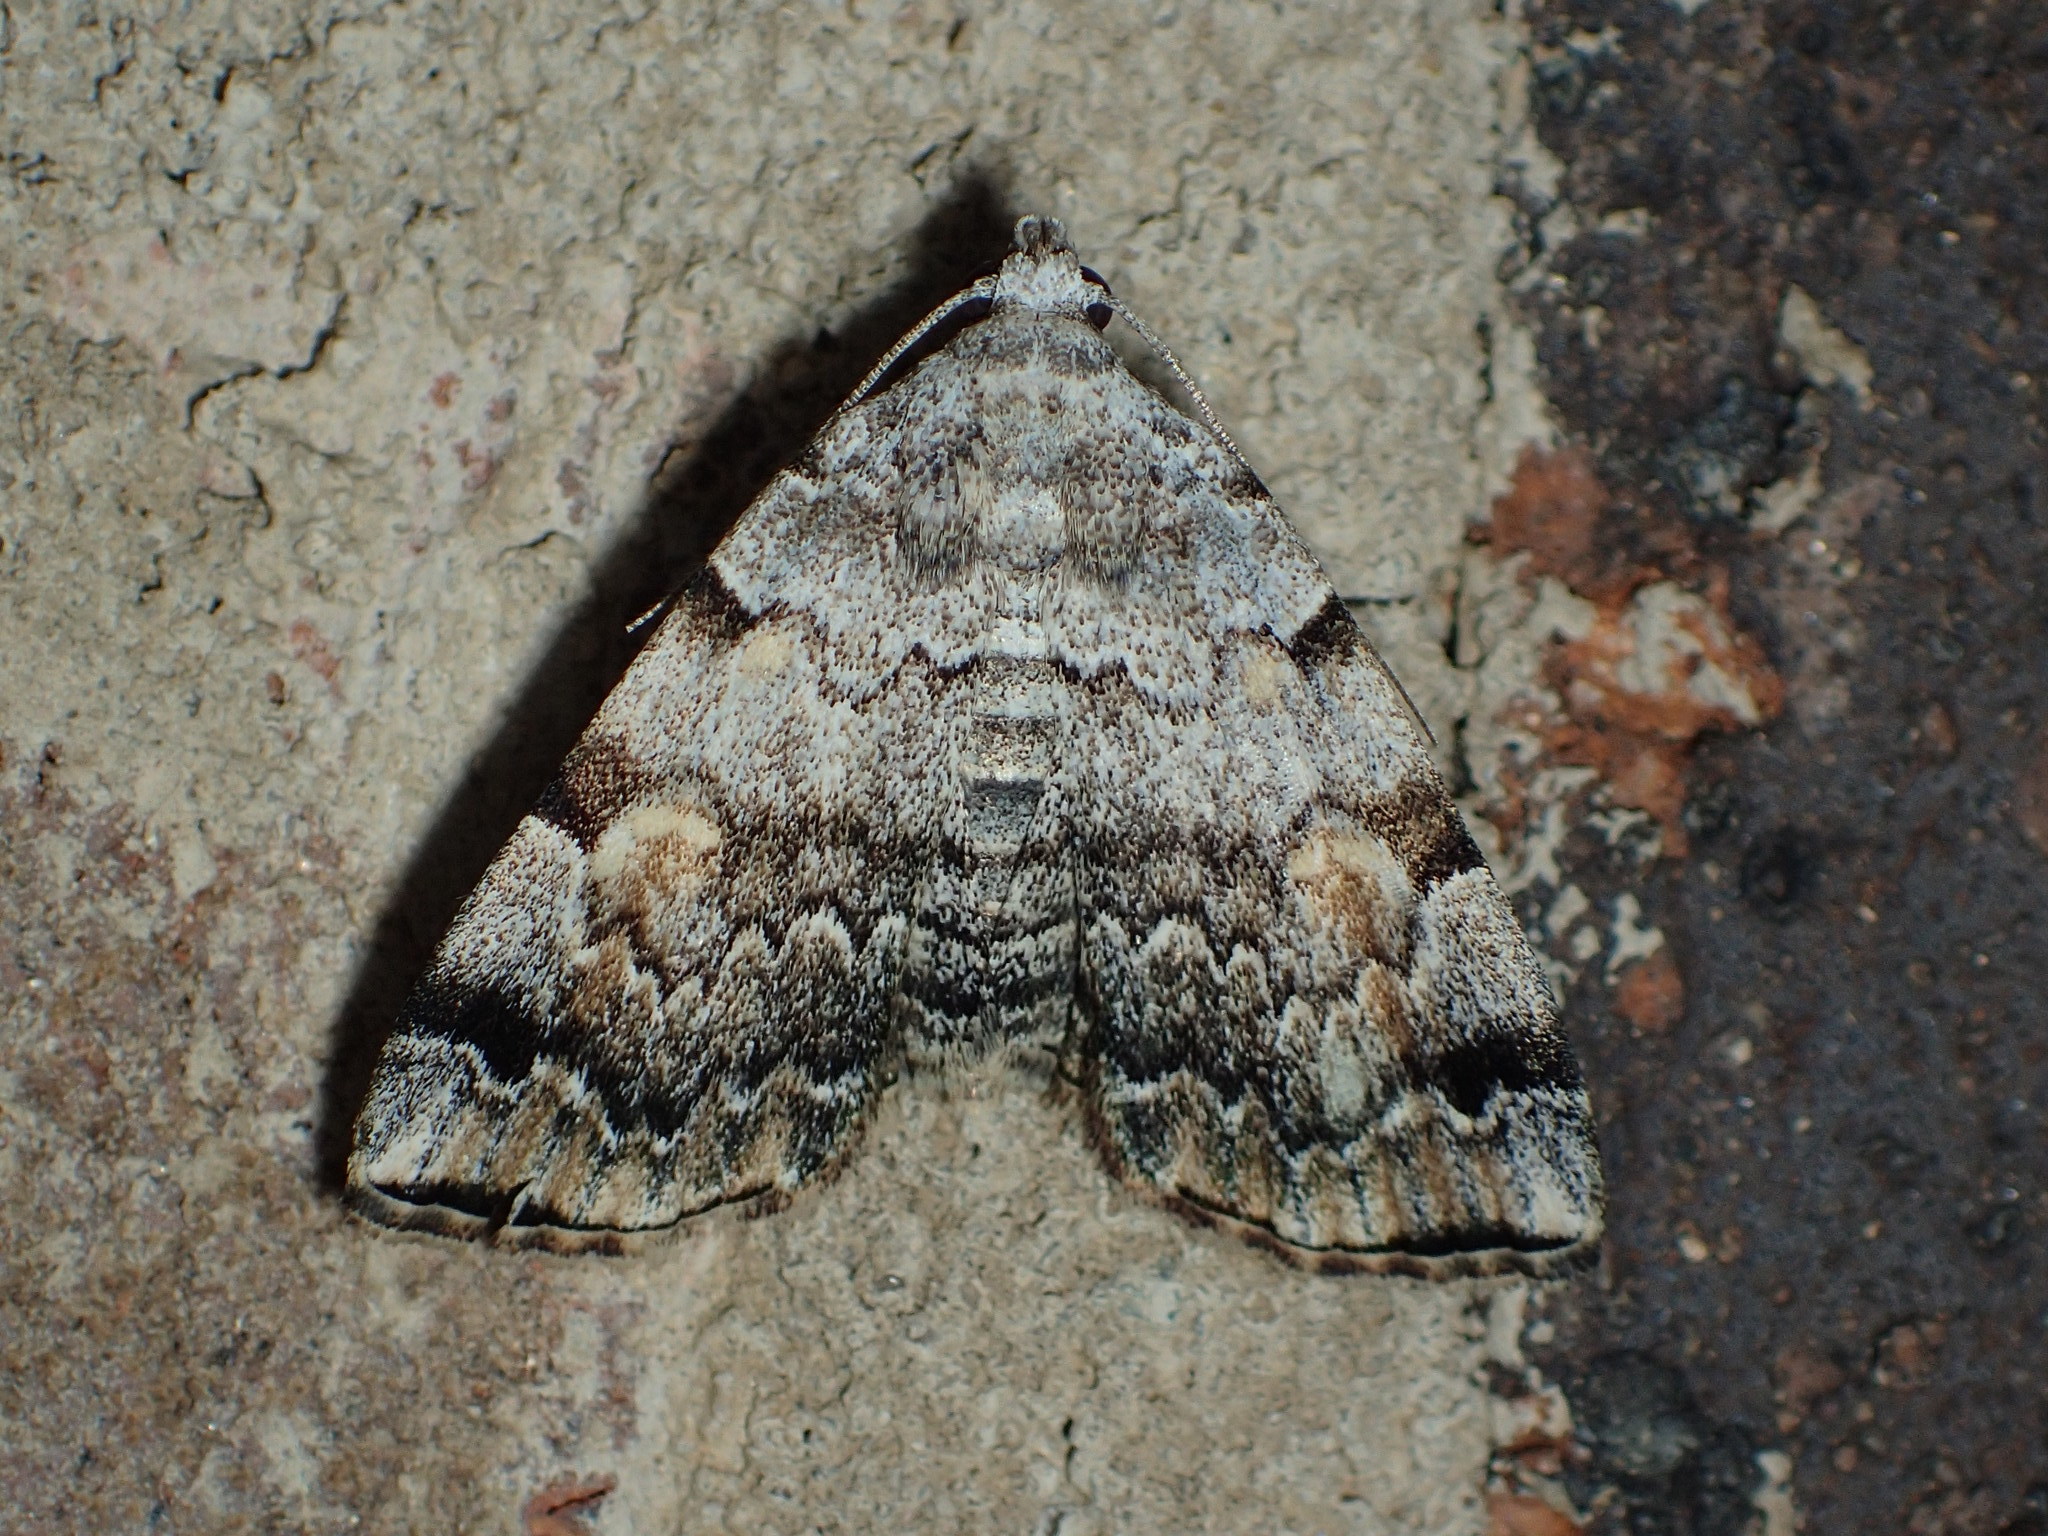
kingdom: Animalia
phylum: Arthropoda
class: Insecta
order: Lepidoptera
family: Erebidae
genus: Idia
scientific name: Idia americalis
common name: American idia moth
